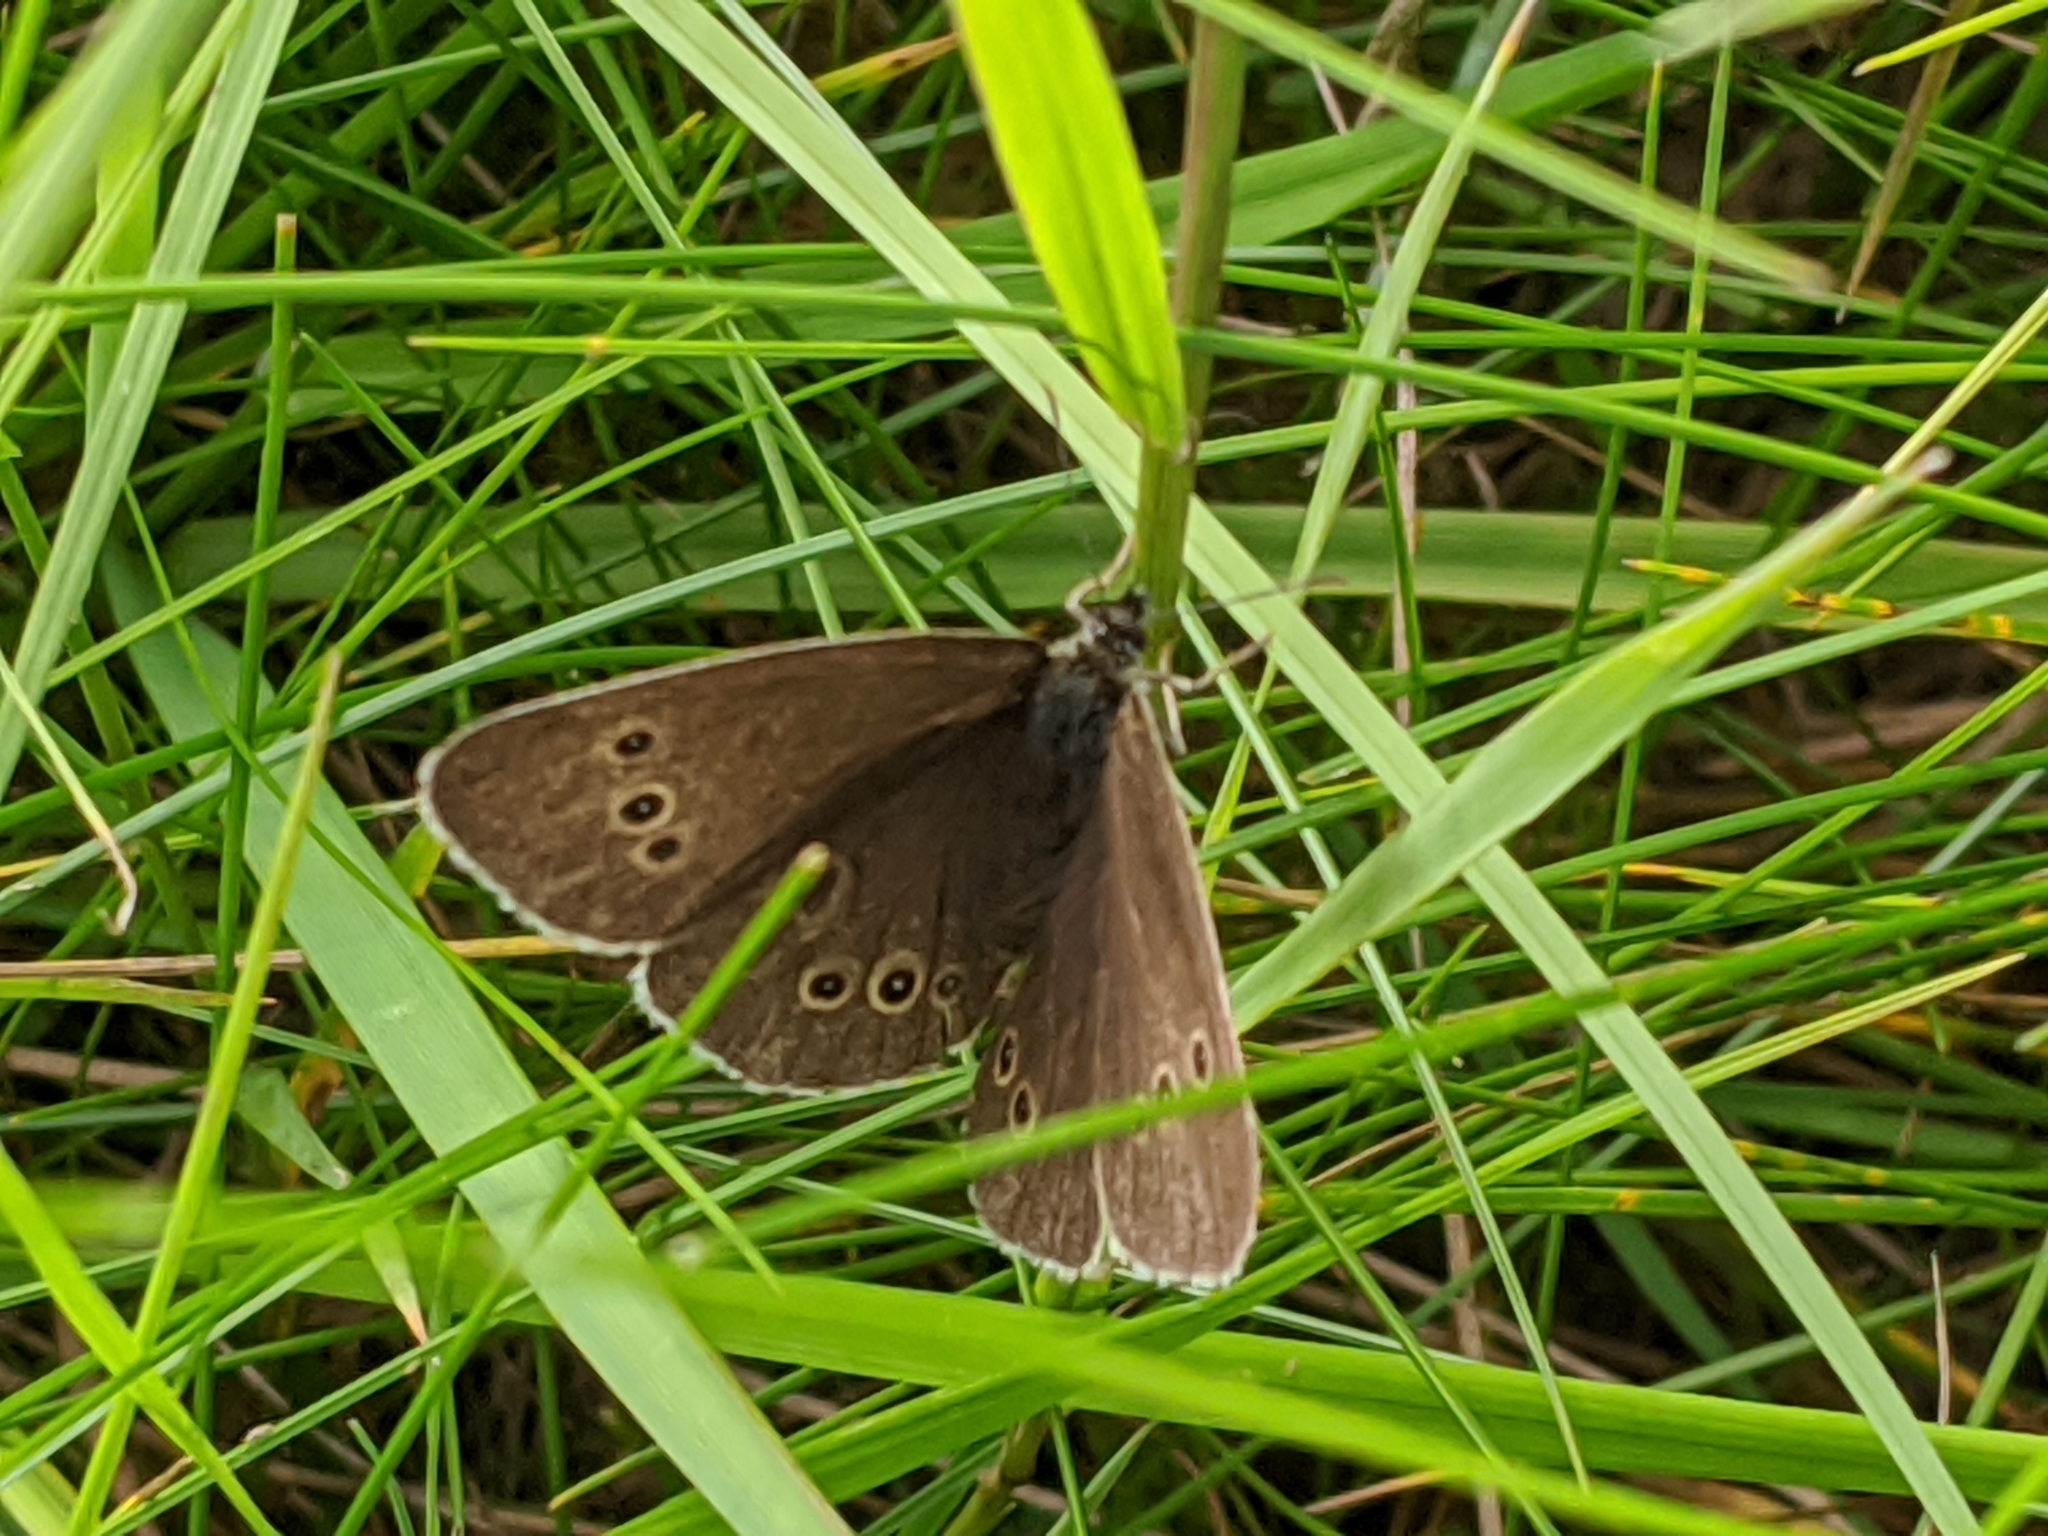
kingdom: Animalia
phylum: Arthropoda
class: Insecta
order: Lepidoptera
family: Nymphalidae
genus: Aphantopus
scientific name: Aphantopus hyperantus
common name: Ringlet
